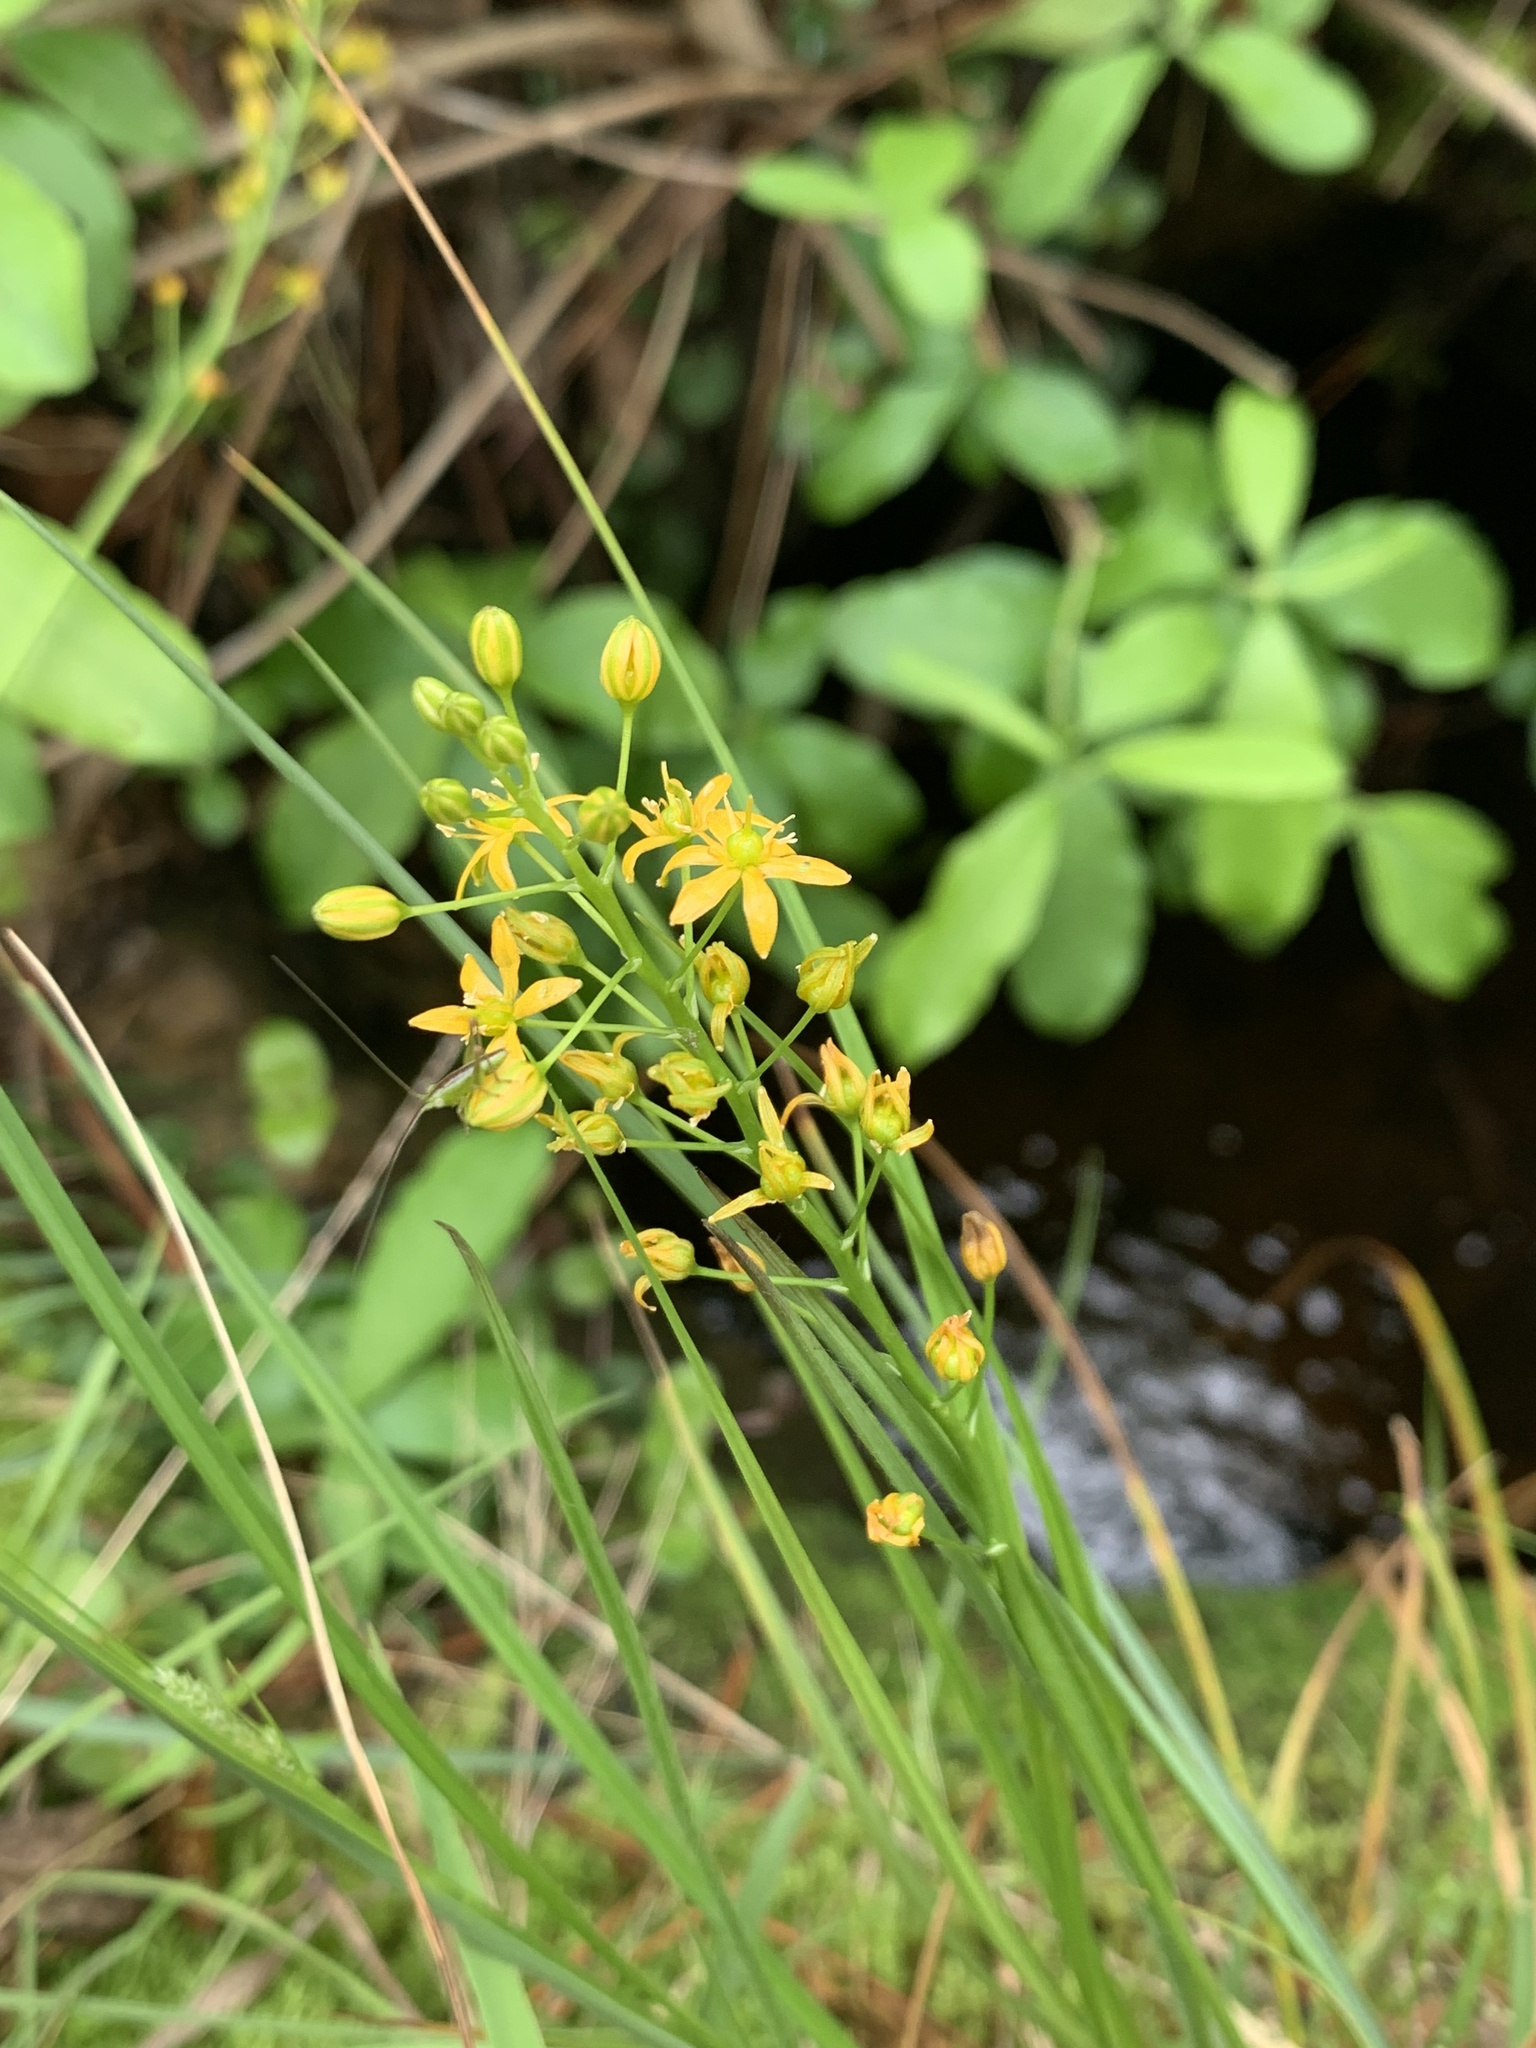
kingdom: Plantae
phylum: Tracheophyta
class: Liliopsida
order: Asparagales
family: Asparagaceae
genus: Schoenolirion
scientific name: Schoenolirion croceum
